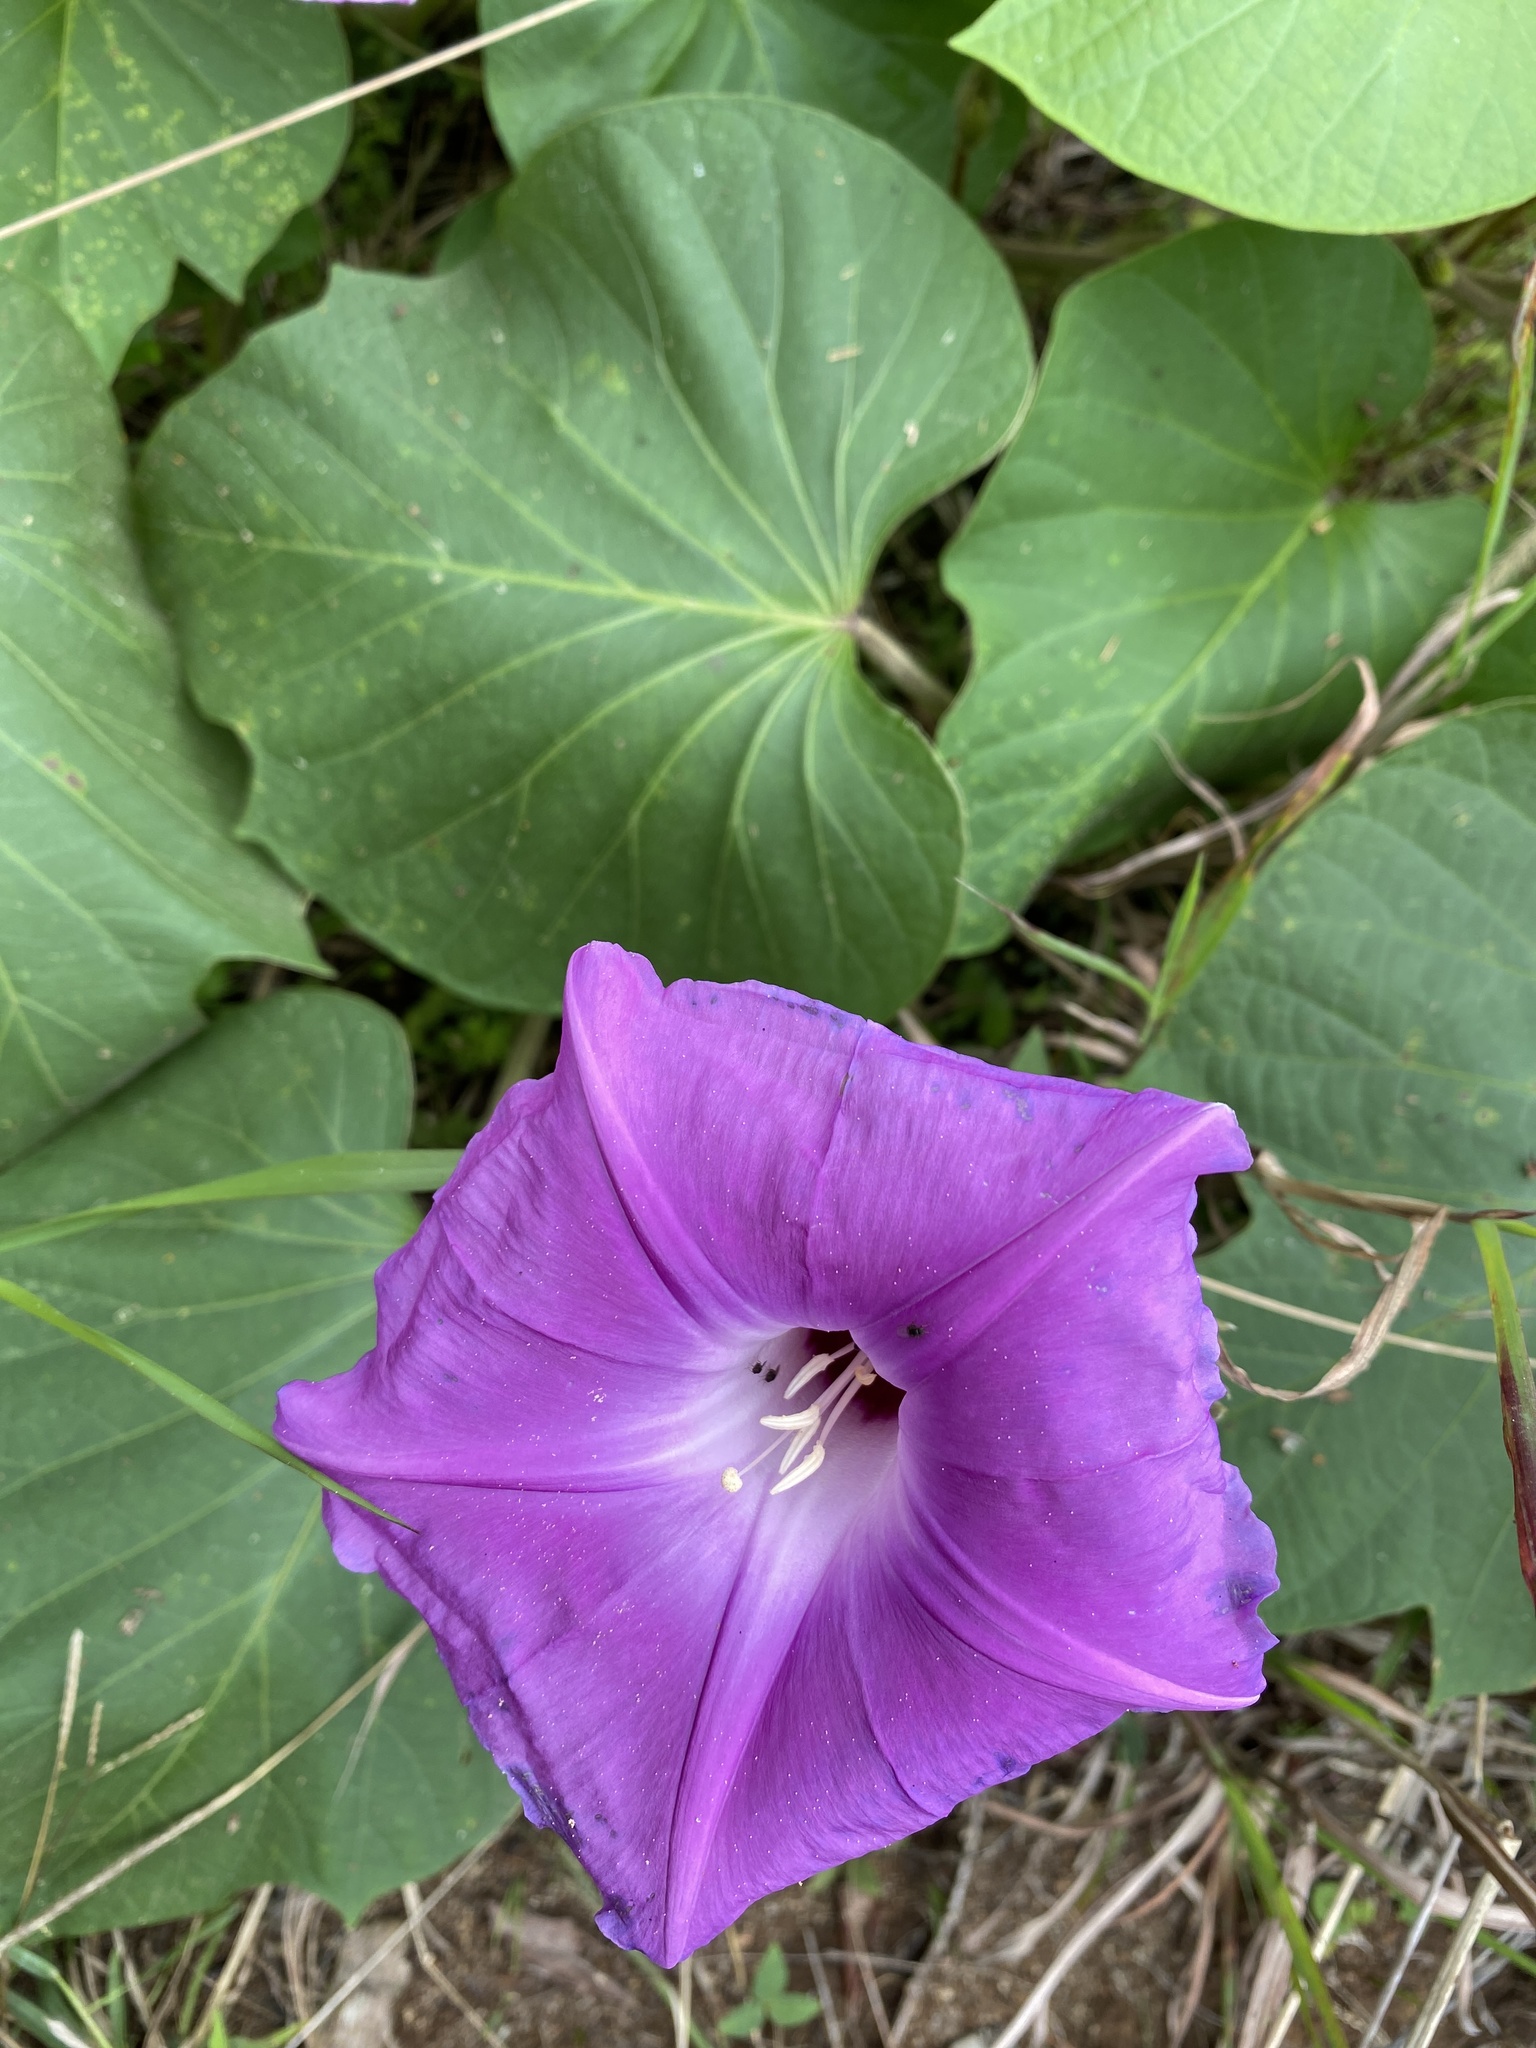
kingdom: Plantae
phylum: Tracheophyta
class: Magnoliopsida
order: Solanales
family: Convolvulaceae
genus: Ipomoea
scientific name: Ipomoea villifera
